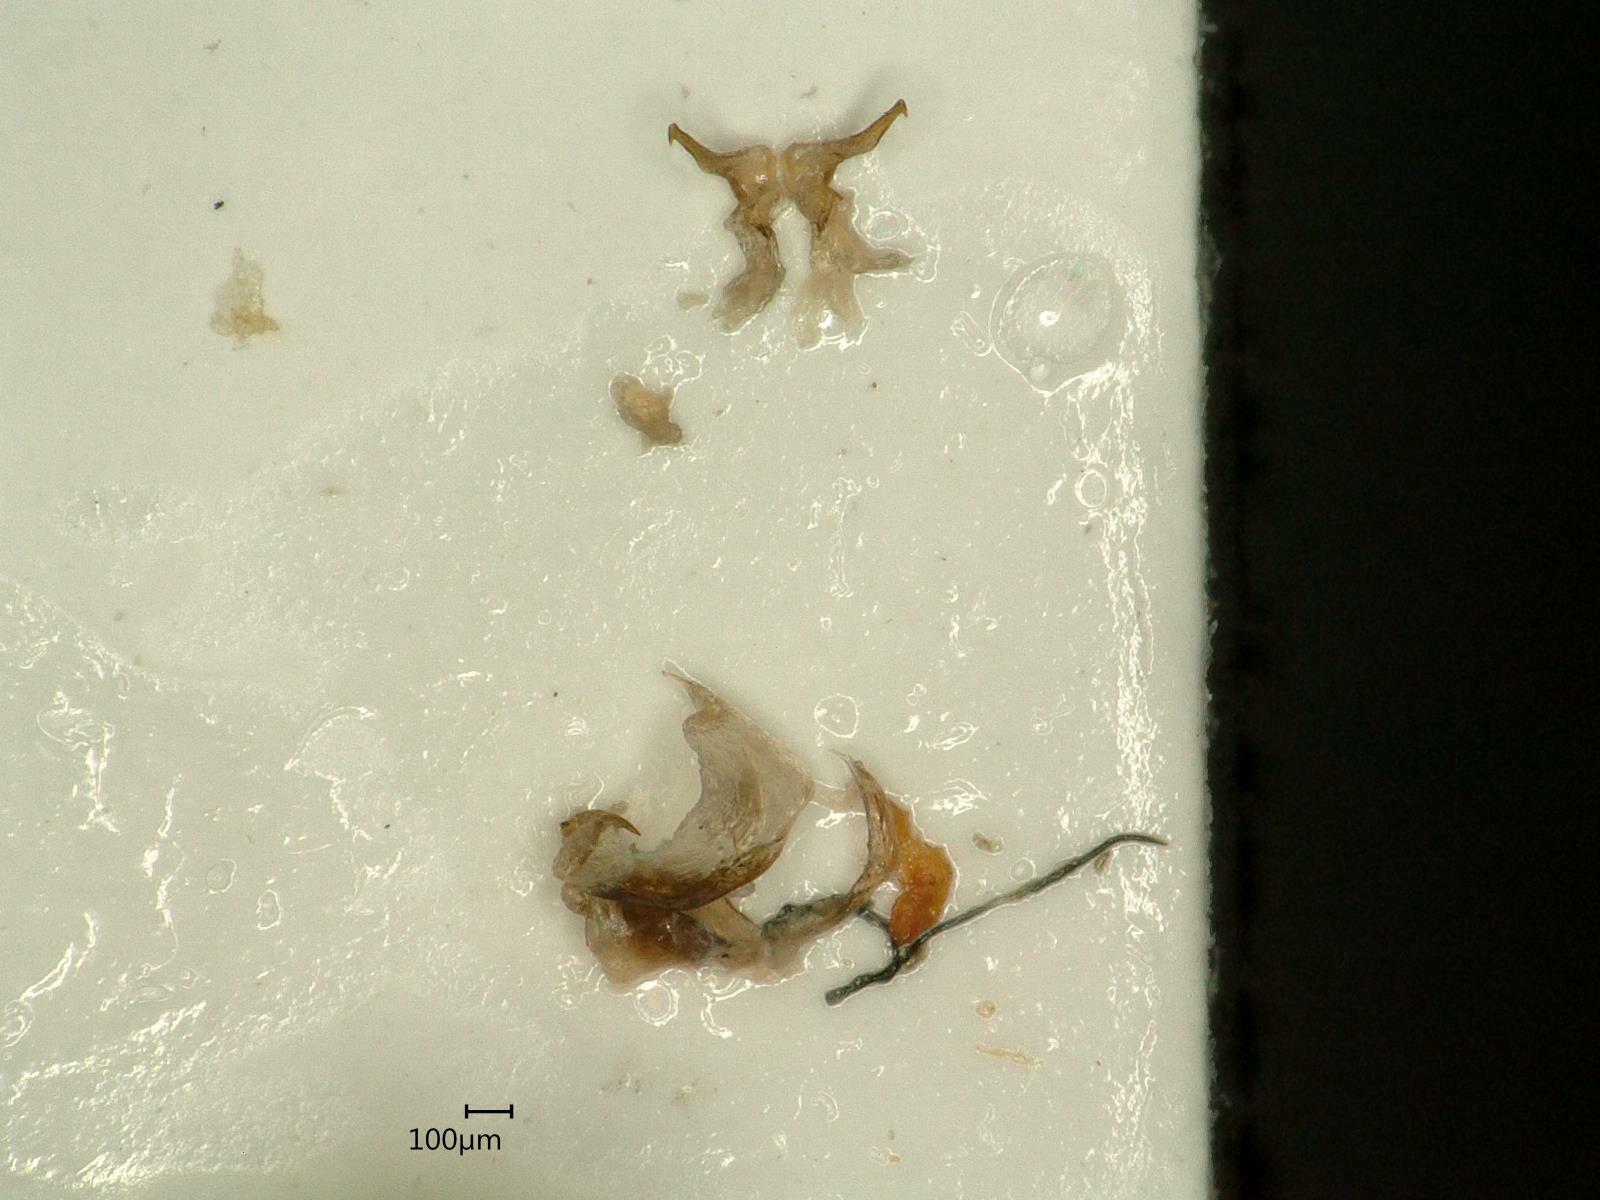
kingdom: Animalia
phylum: Arthropoda
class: Insecta
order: Hemiptera
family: Delphacidae
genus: Chloriona
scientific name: Chloriona vasconica
